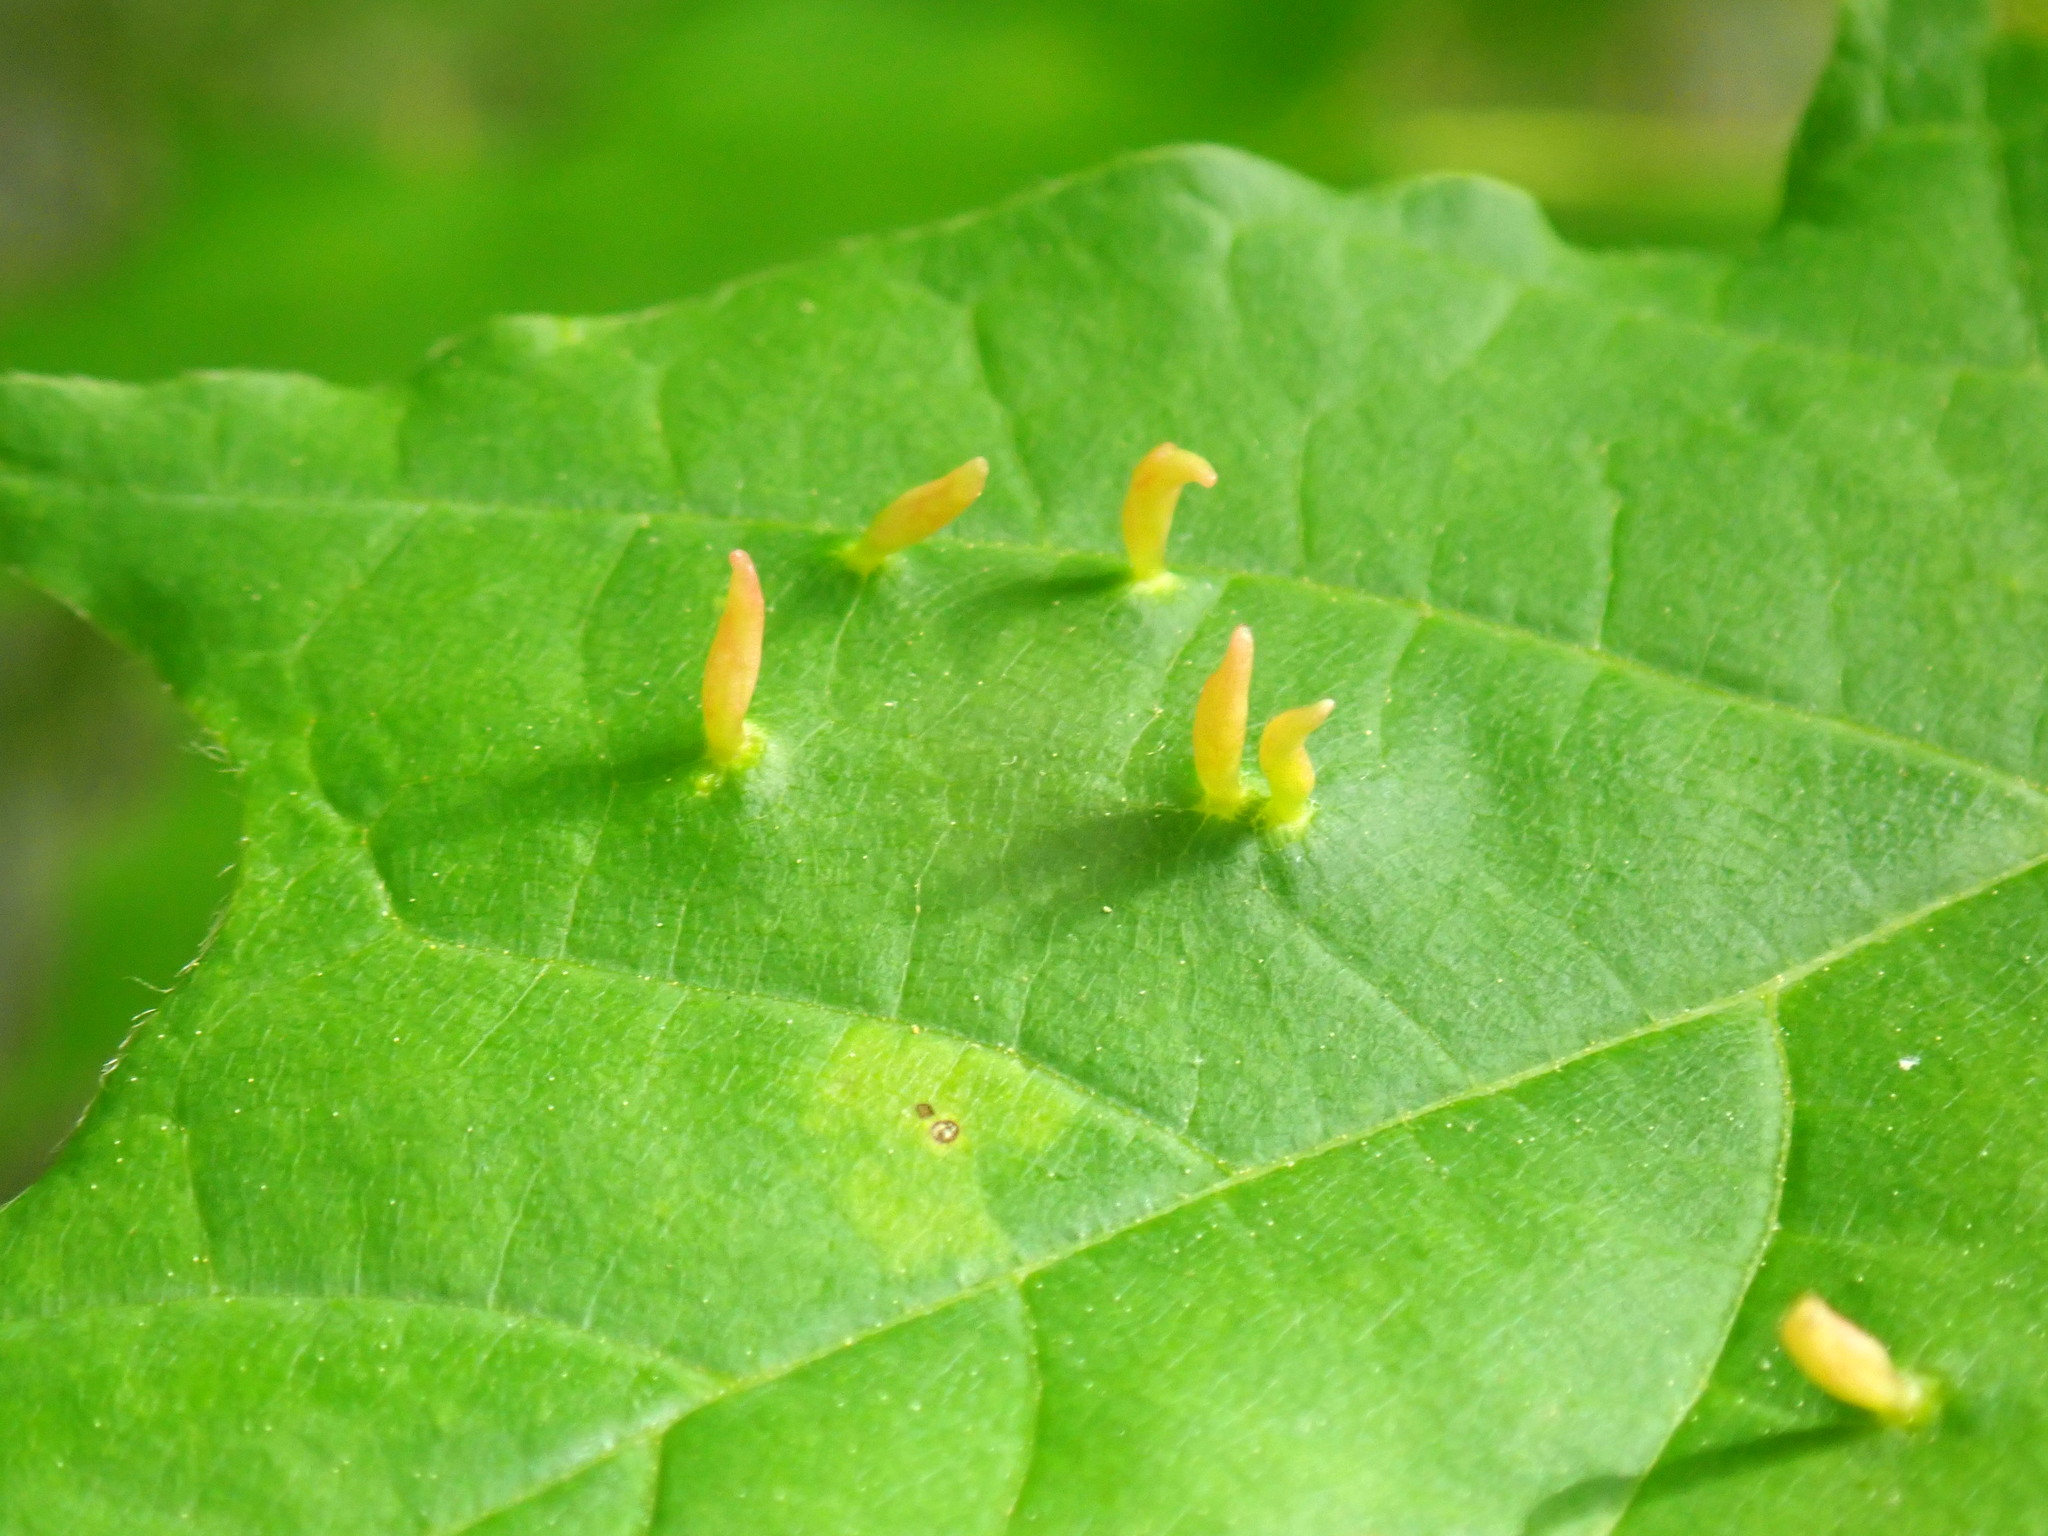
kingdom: Animalia
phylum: Arthropoda
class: Arachnida
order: Trombidiformes
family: Eriophyidae
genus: Vasates
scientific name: Vasates aceriscrumena
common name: Maple spindle gall mite
